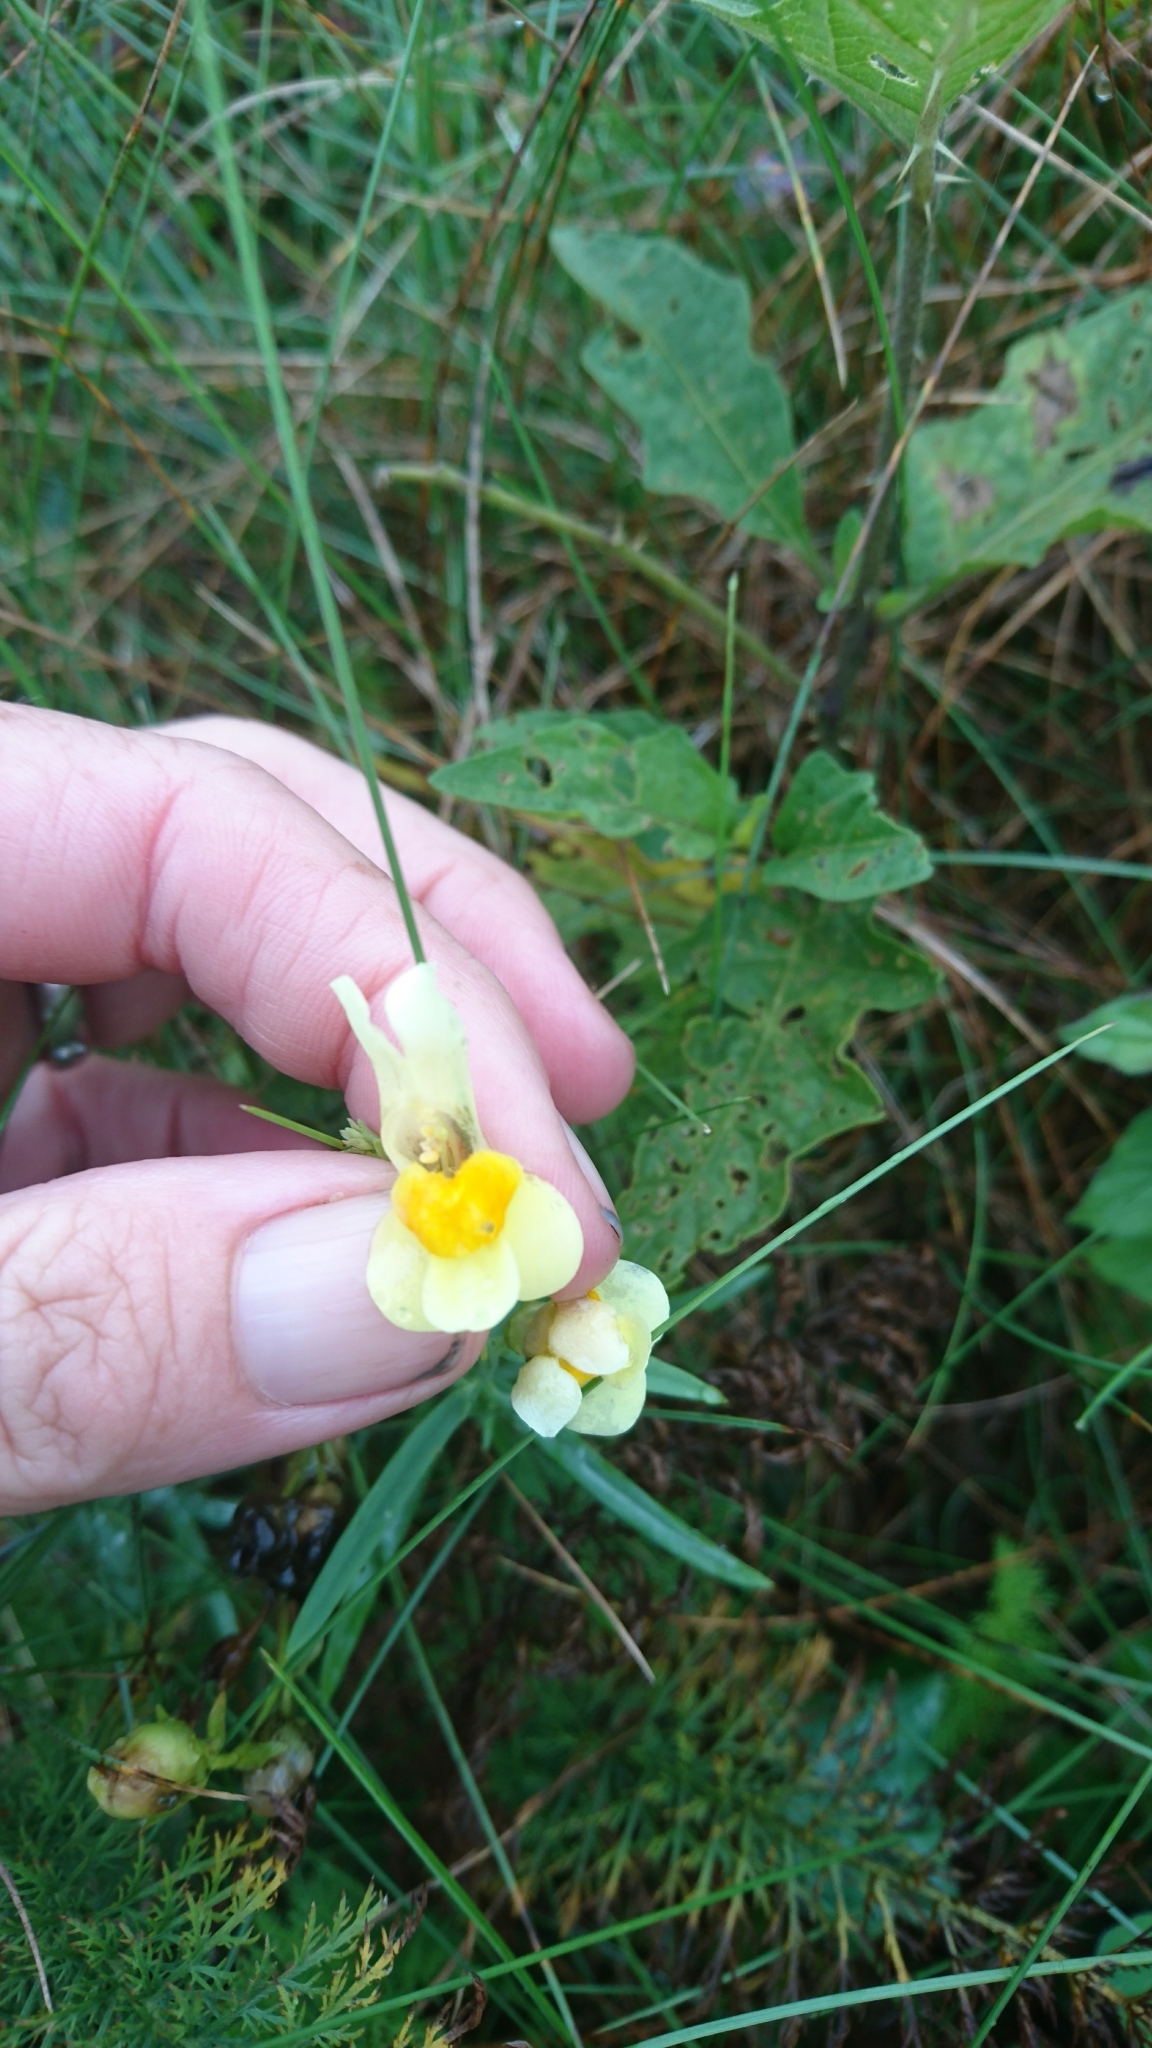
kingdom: Plantae
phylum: Tracheophyta
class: Magnoliopsida
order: Lamiales
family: Plantaginaceae
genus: Linaria
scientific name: Linaria vulgaris
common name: Butter and eggs
